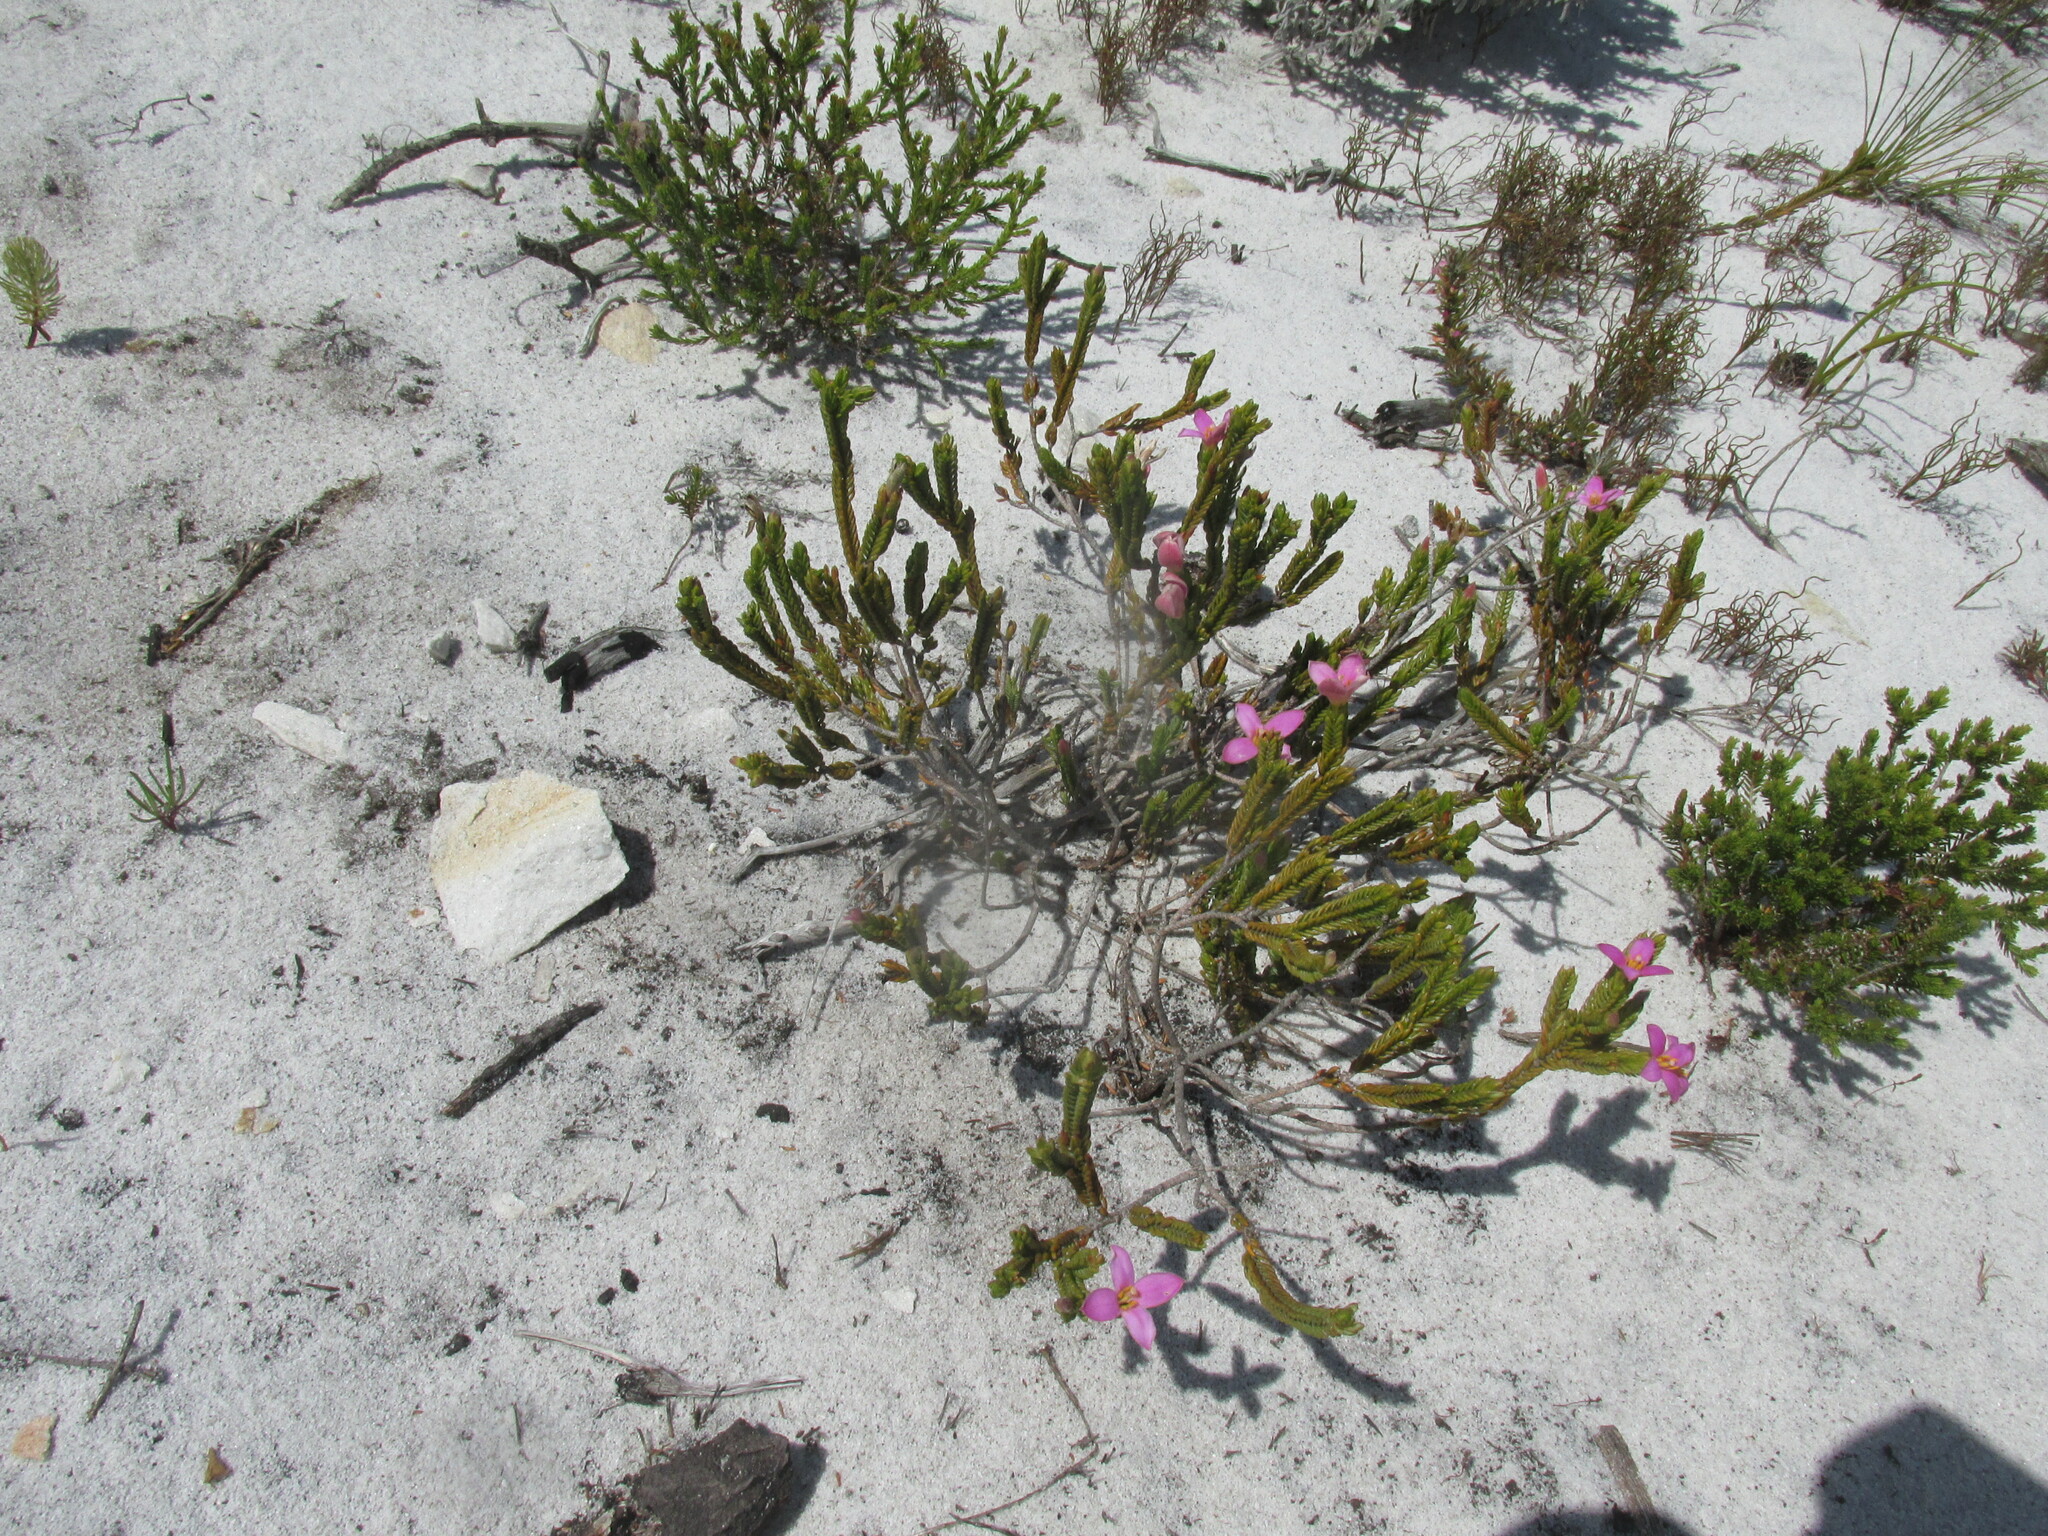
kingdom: Plantae
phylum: Tracheophyta
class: Magnoliopsida
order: Malvales
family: Thymelaeaceae
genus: Lachnaea
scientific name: Lachnaea grandiflora
